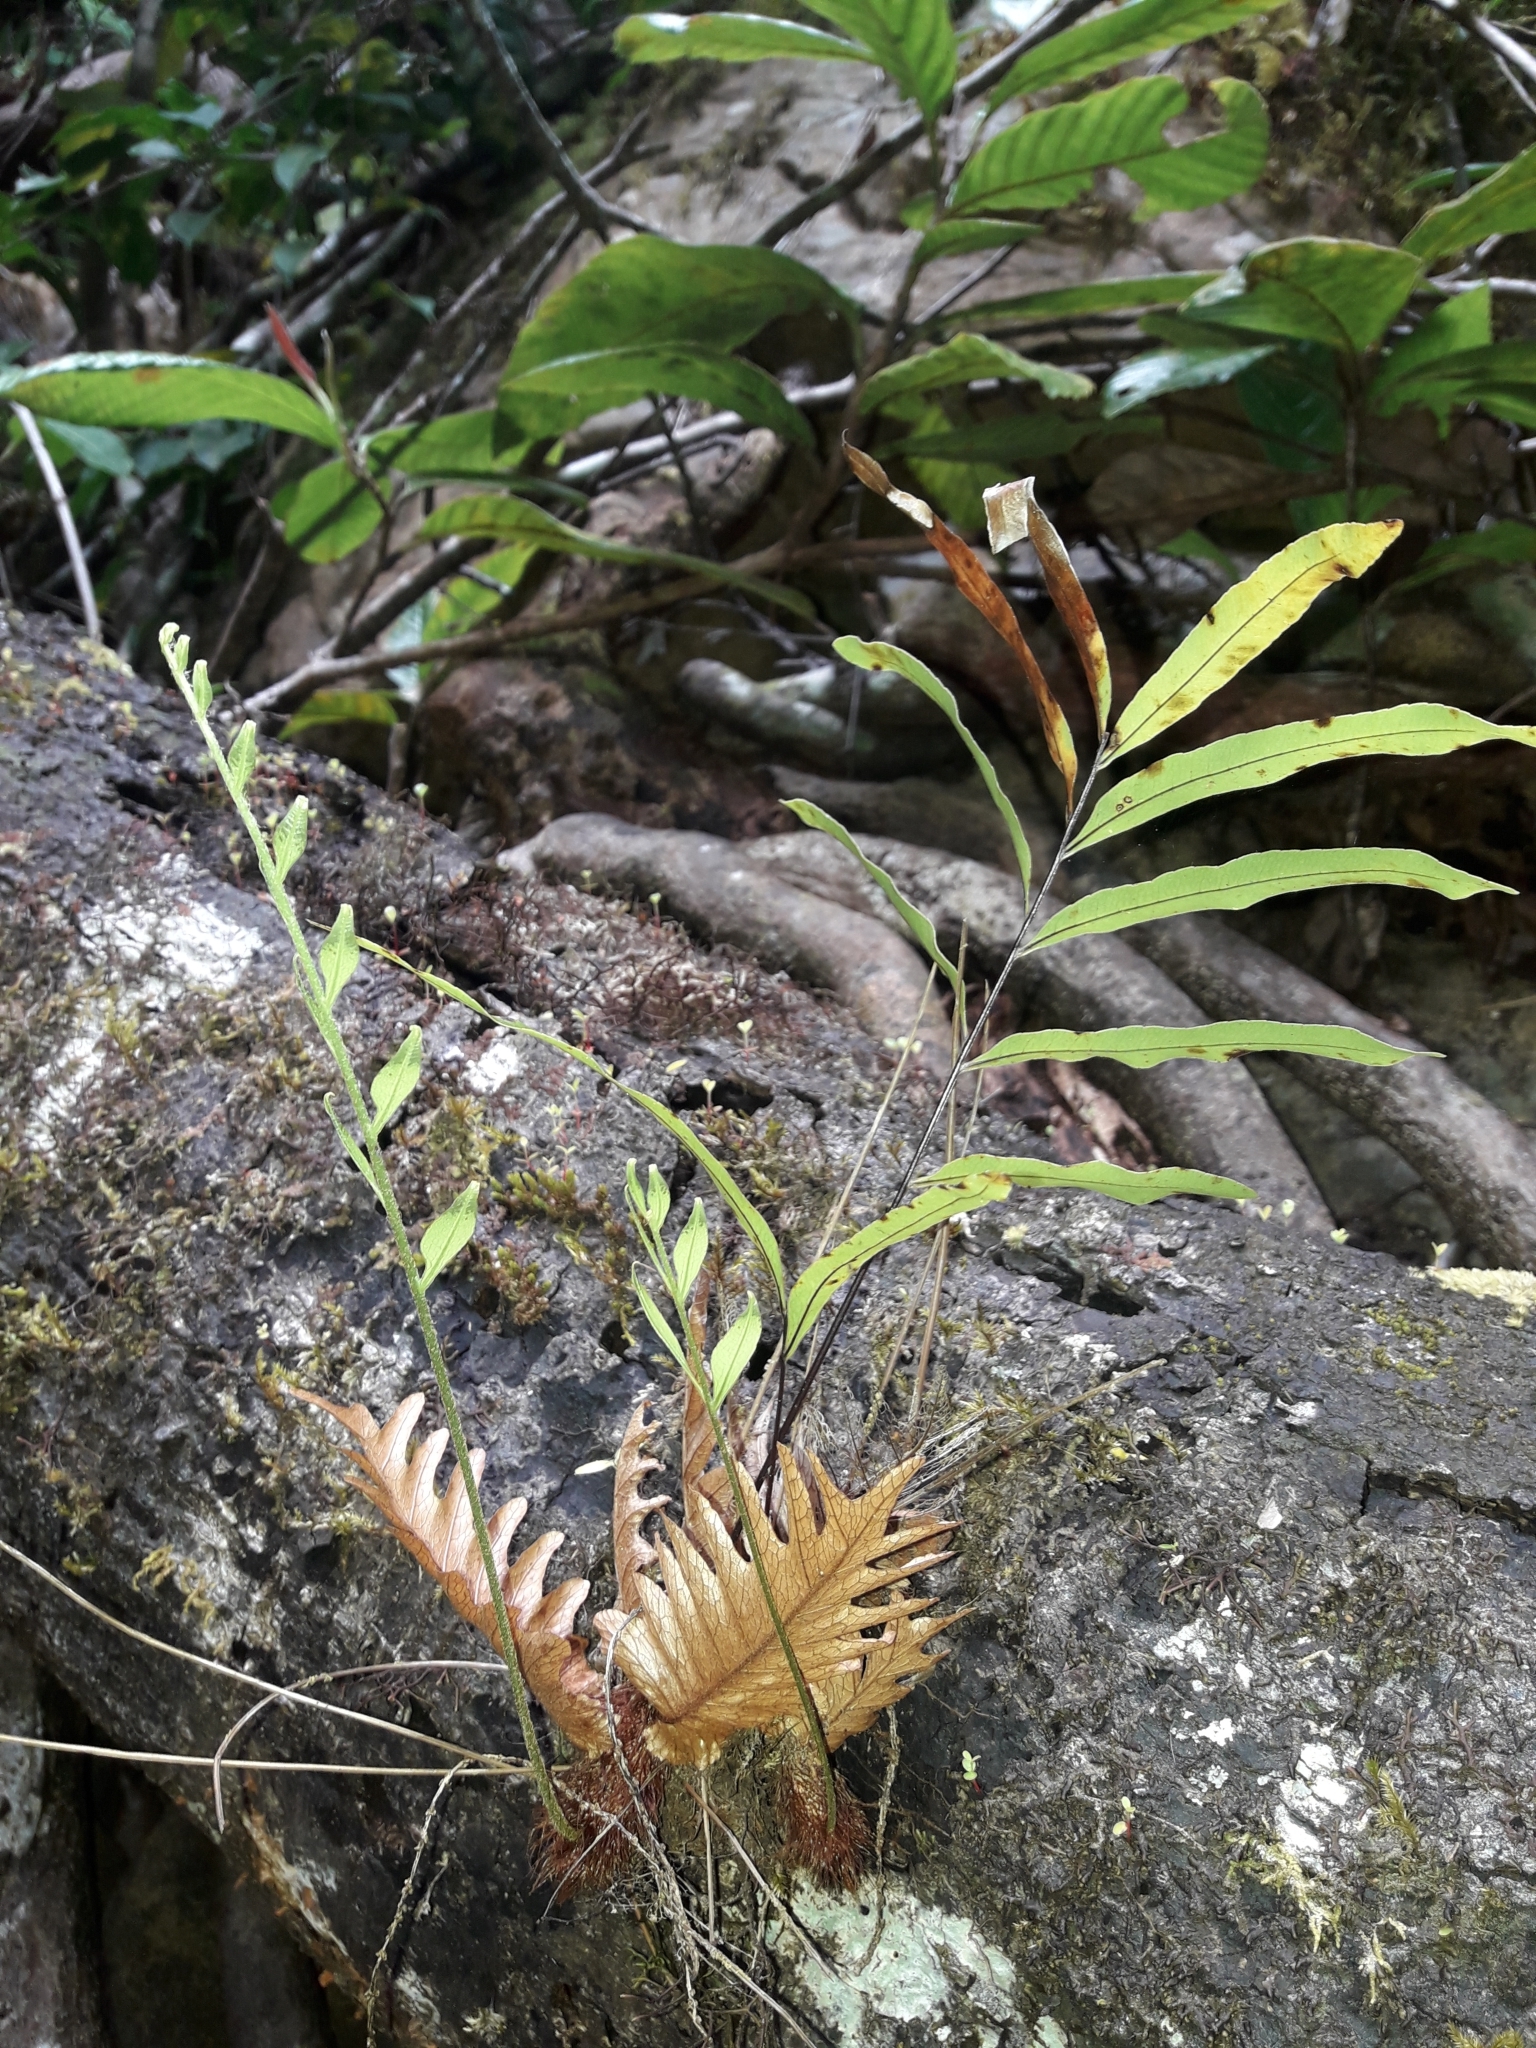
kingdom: Plantae
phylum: Tracheophyta
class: Polypodiopsida
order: Polypodiales
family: Polypodiaceae
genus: Drynaria
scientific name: Drynaria rigidula
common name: Basket fern
